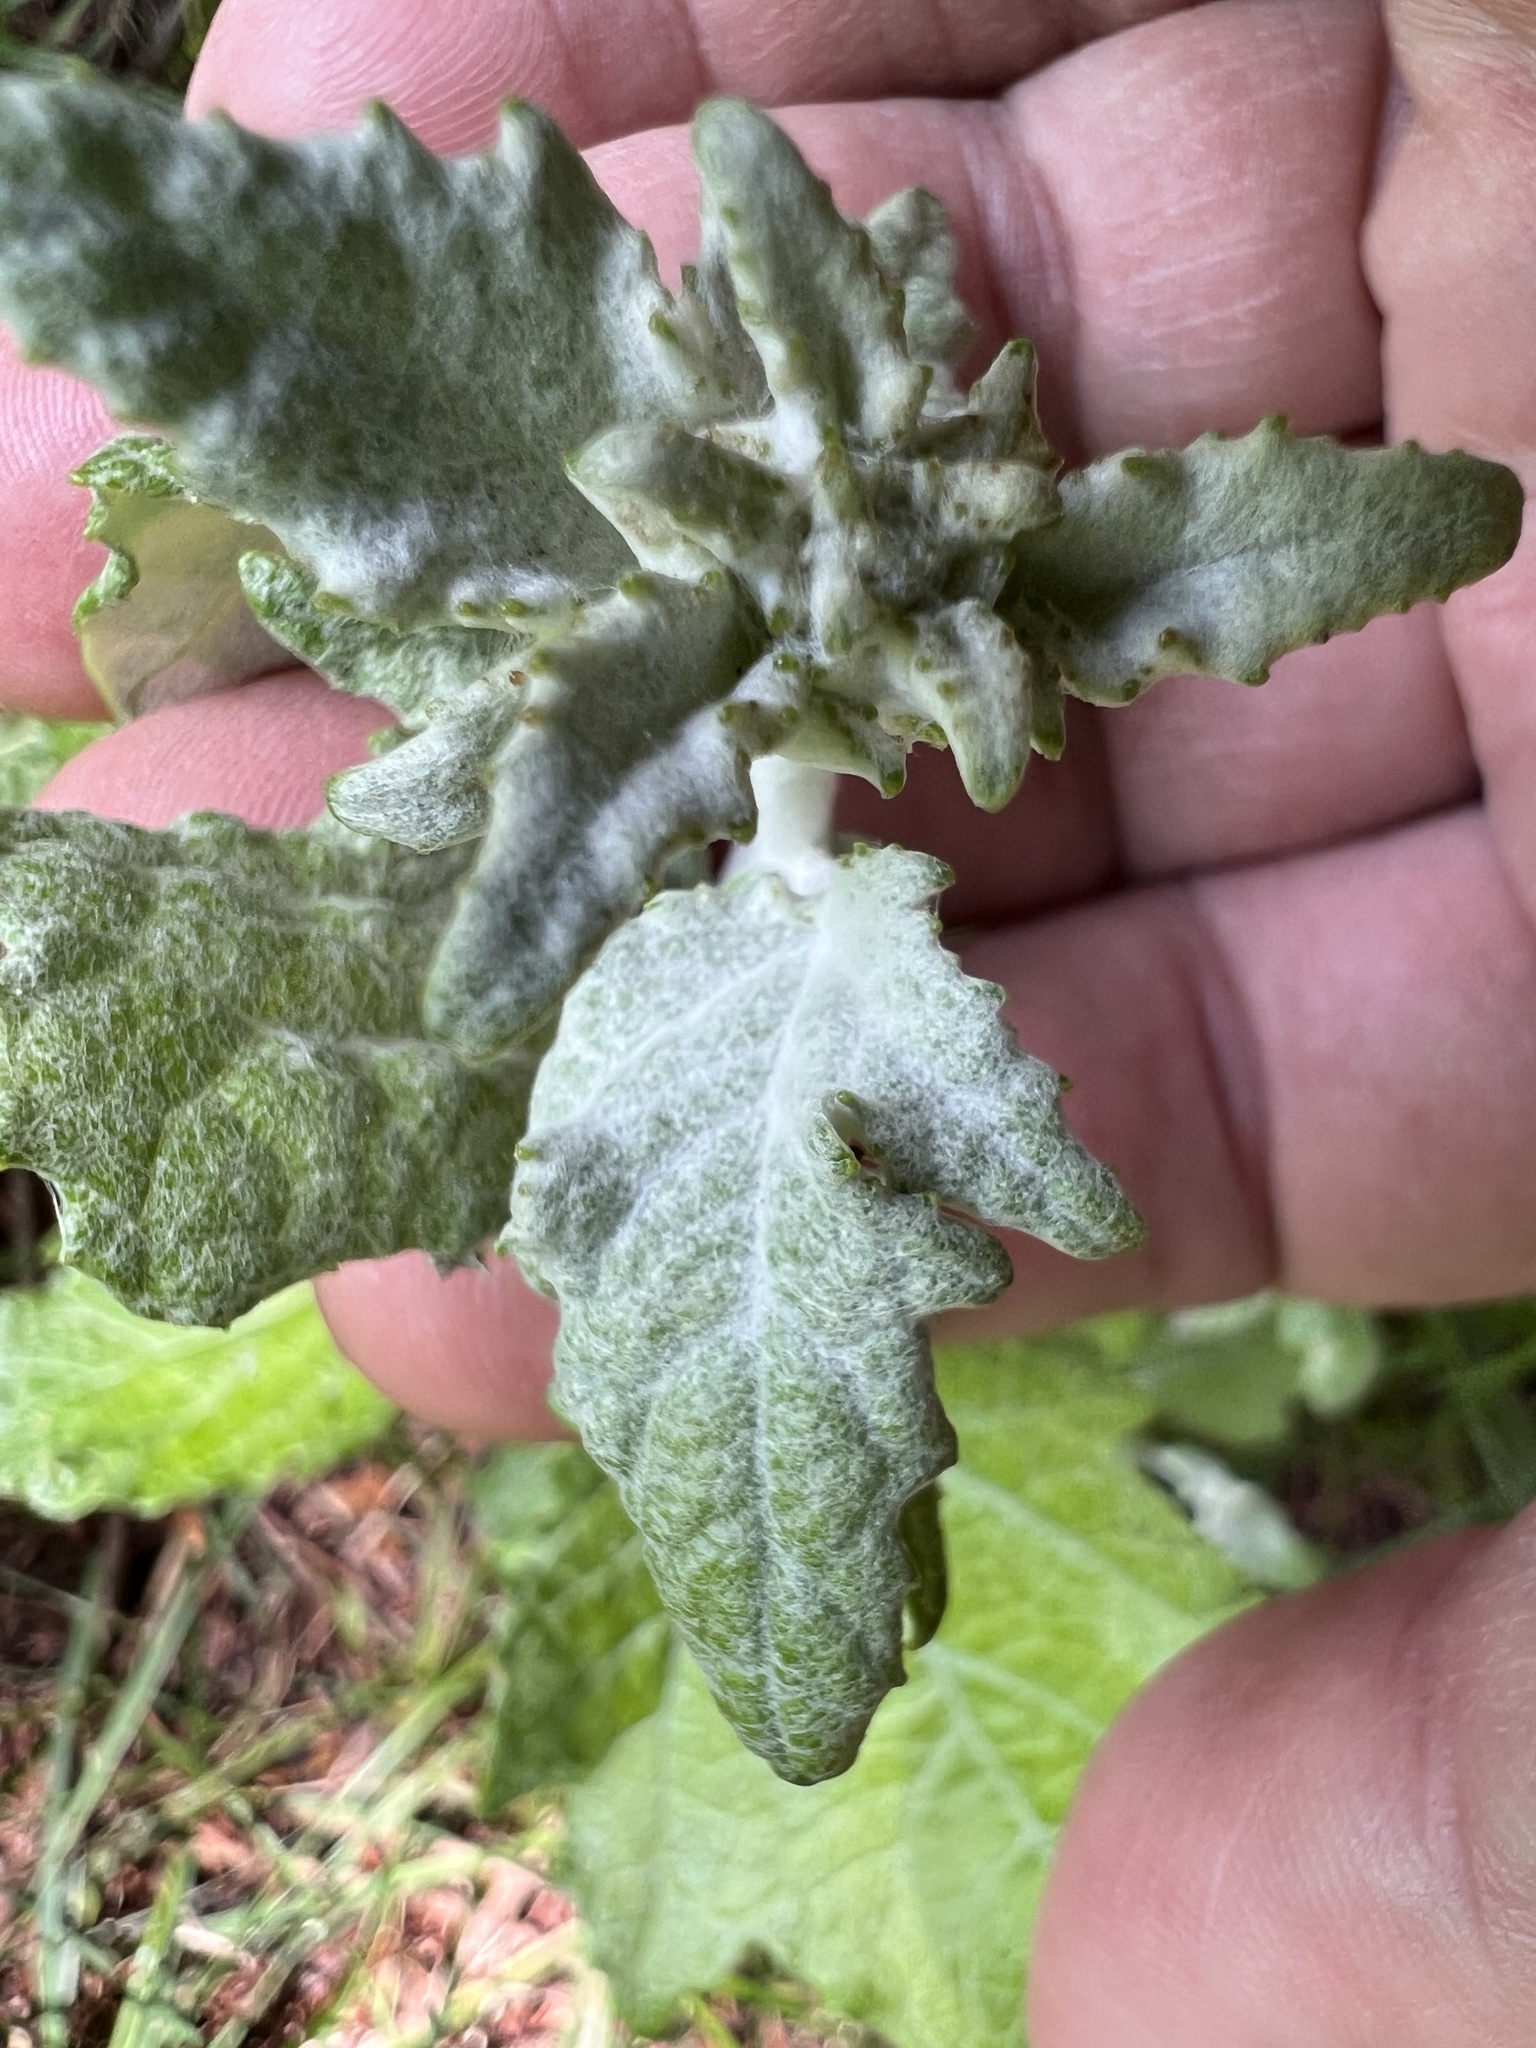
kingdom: Plantae
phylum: Tracheophyta
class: Magnoliopsida
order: Malpighiales
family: Salicaceae
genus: Populus
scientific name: Populus alba
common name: White poplar
